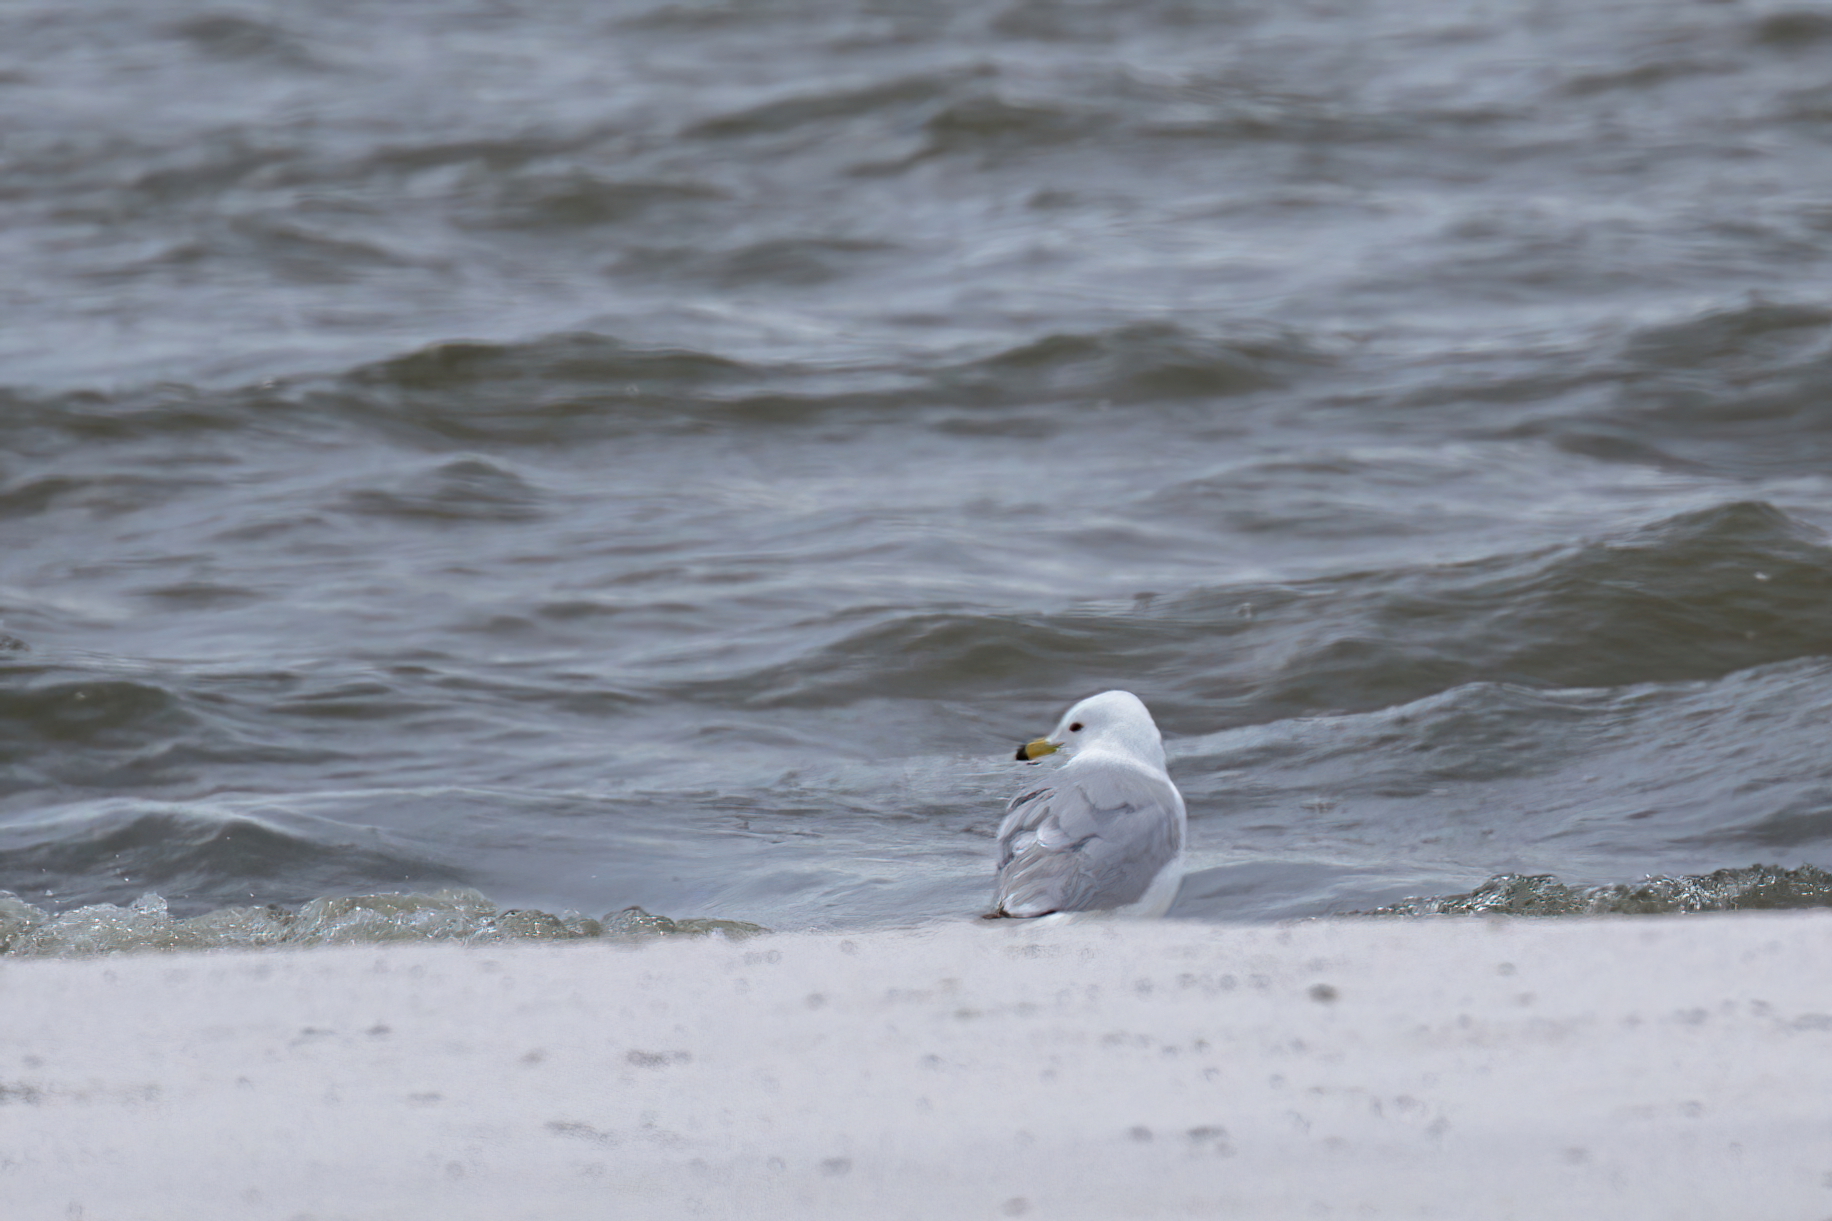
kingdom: Animalia
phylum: Chordata
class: Aves
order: Charadriiformes
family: Laridae
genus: Larus
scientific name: Larus delawarensis
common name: Ring-billed gull
